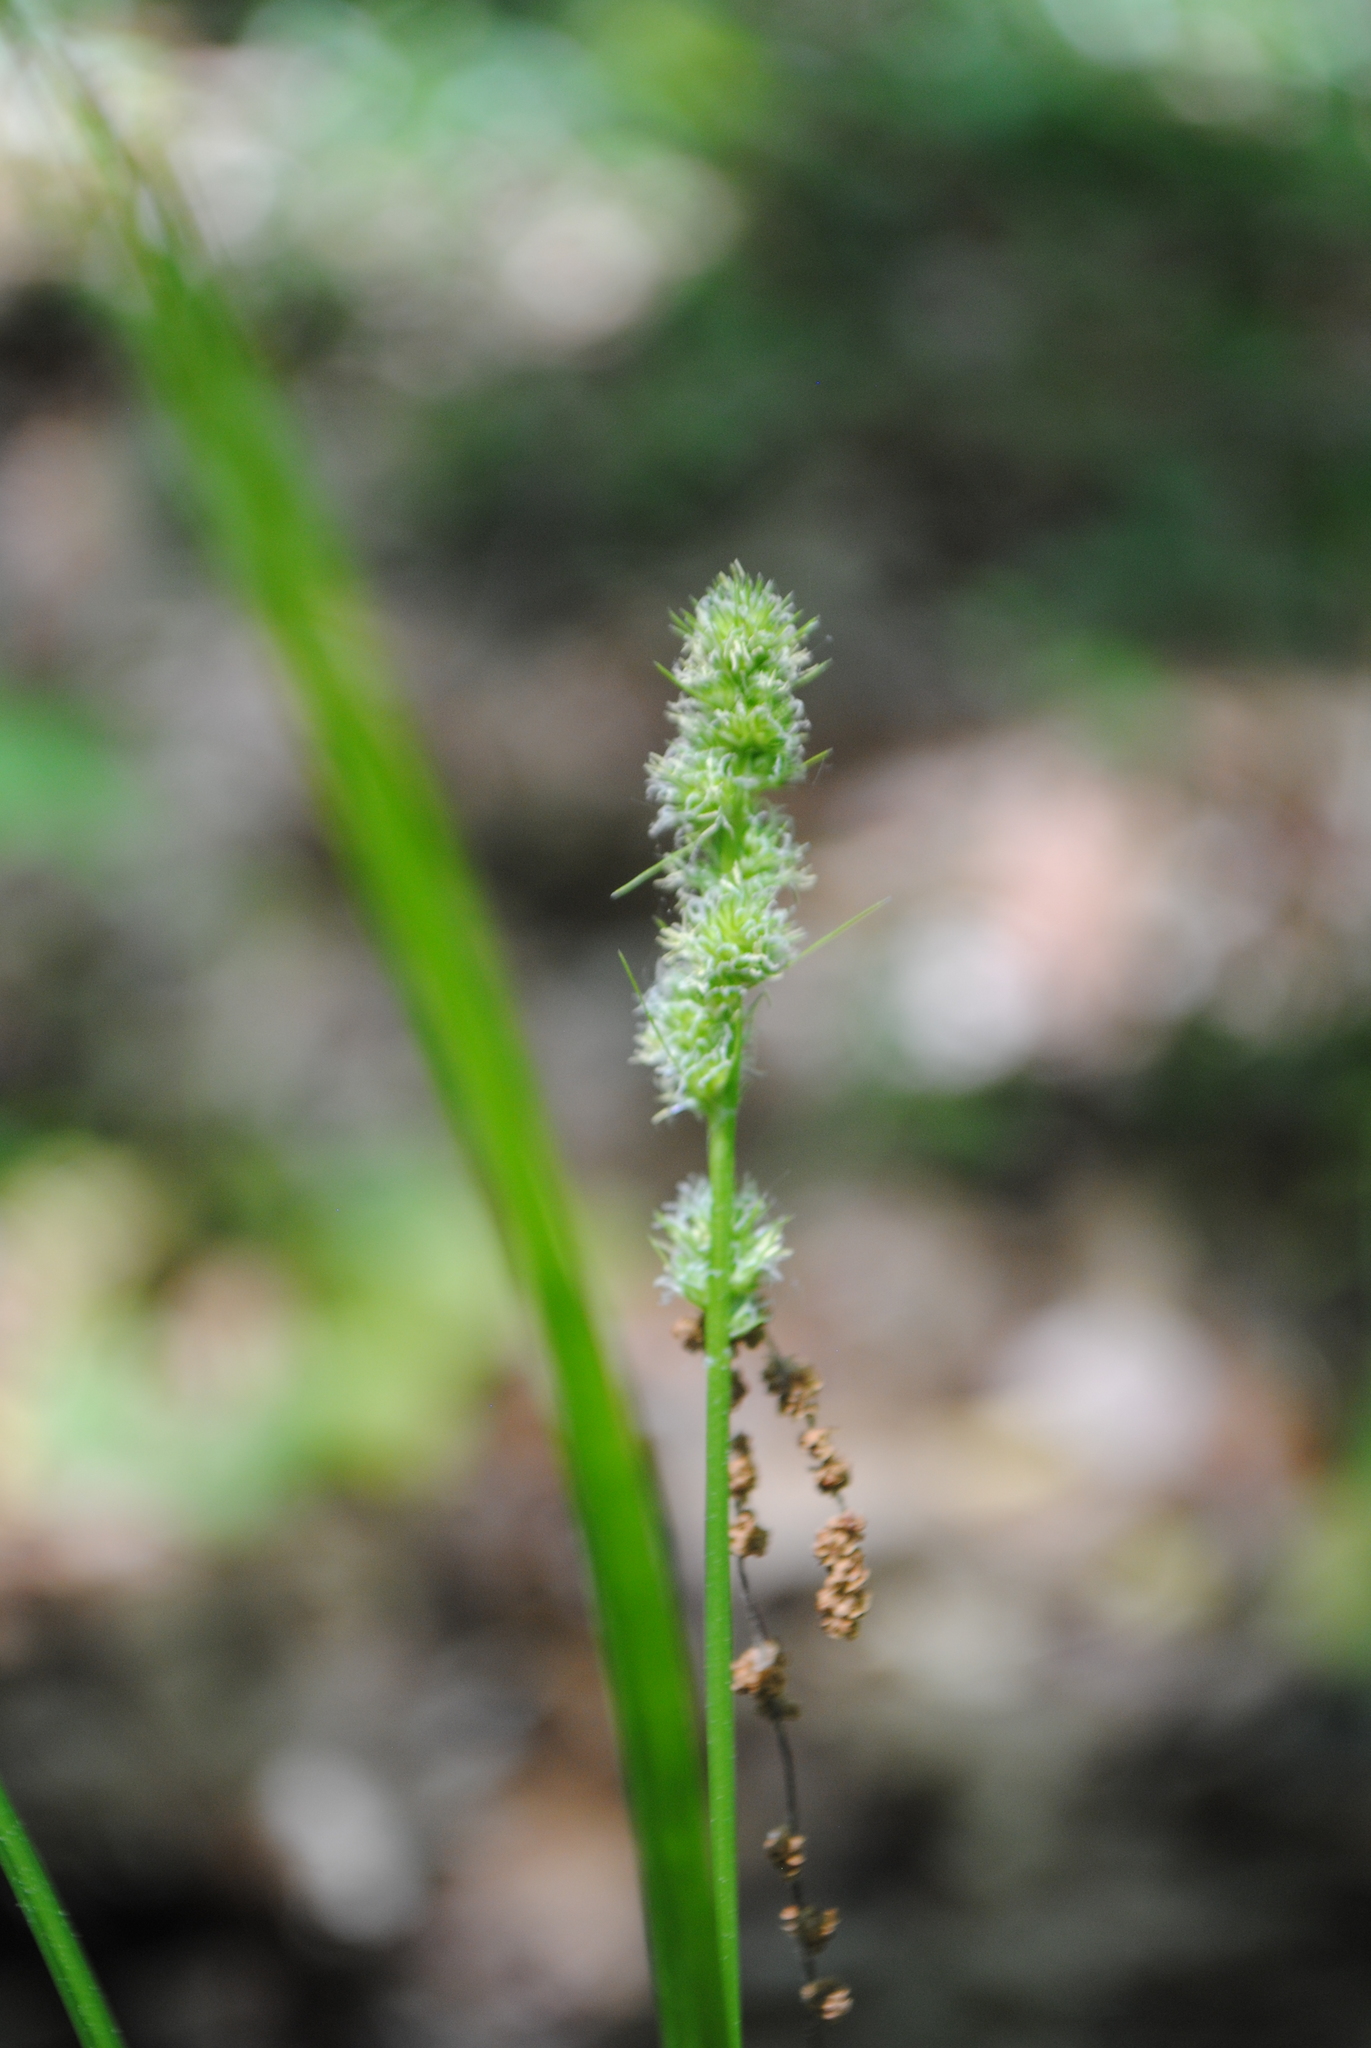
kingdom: Plantae
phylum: Tracheophyta
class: Liliopsida
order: Poales
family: Cyperaceae
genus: Carex
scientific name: Carex annectens
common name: Large fox sedge
